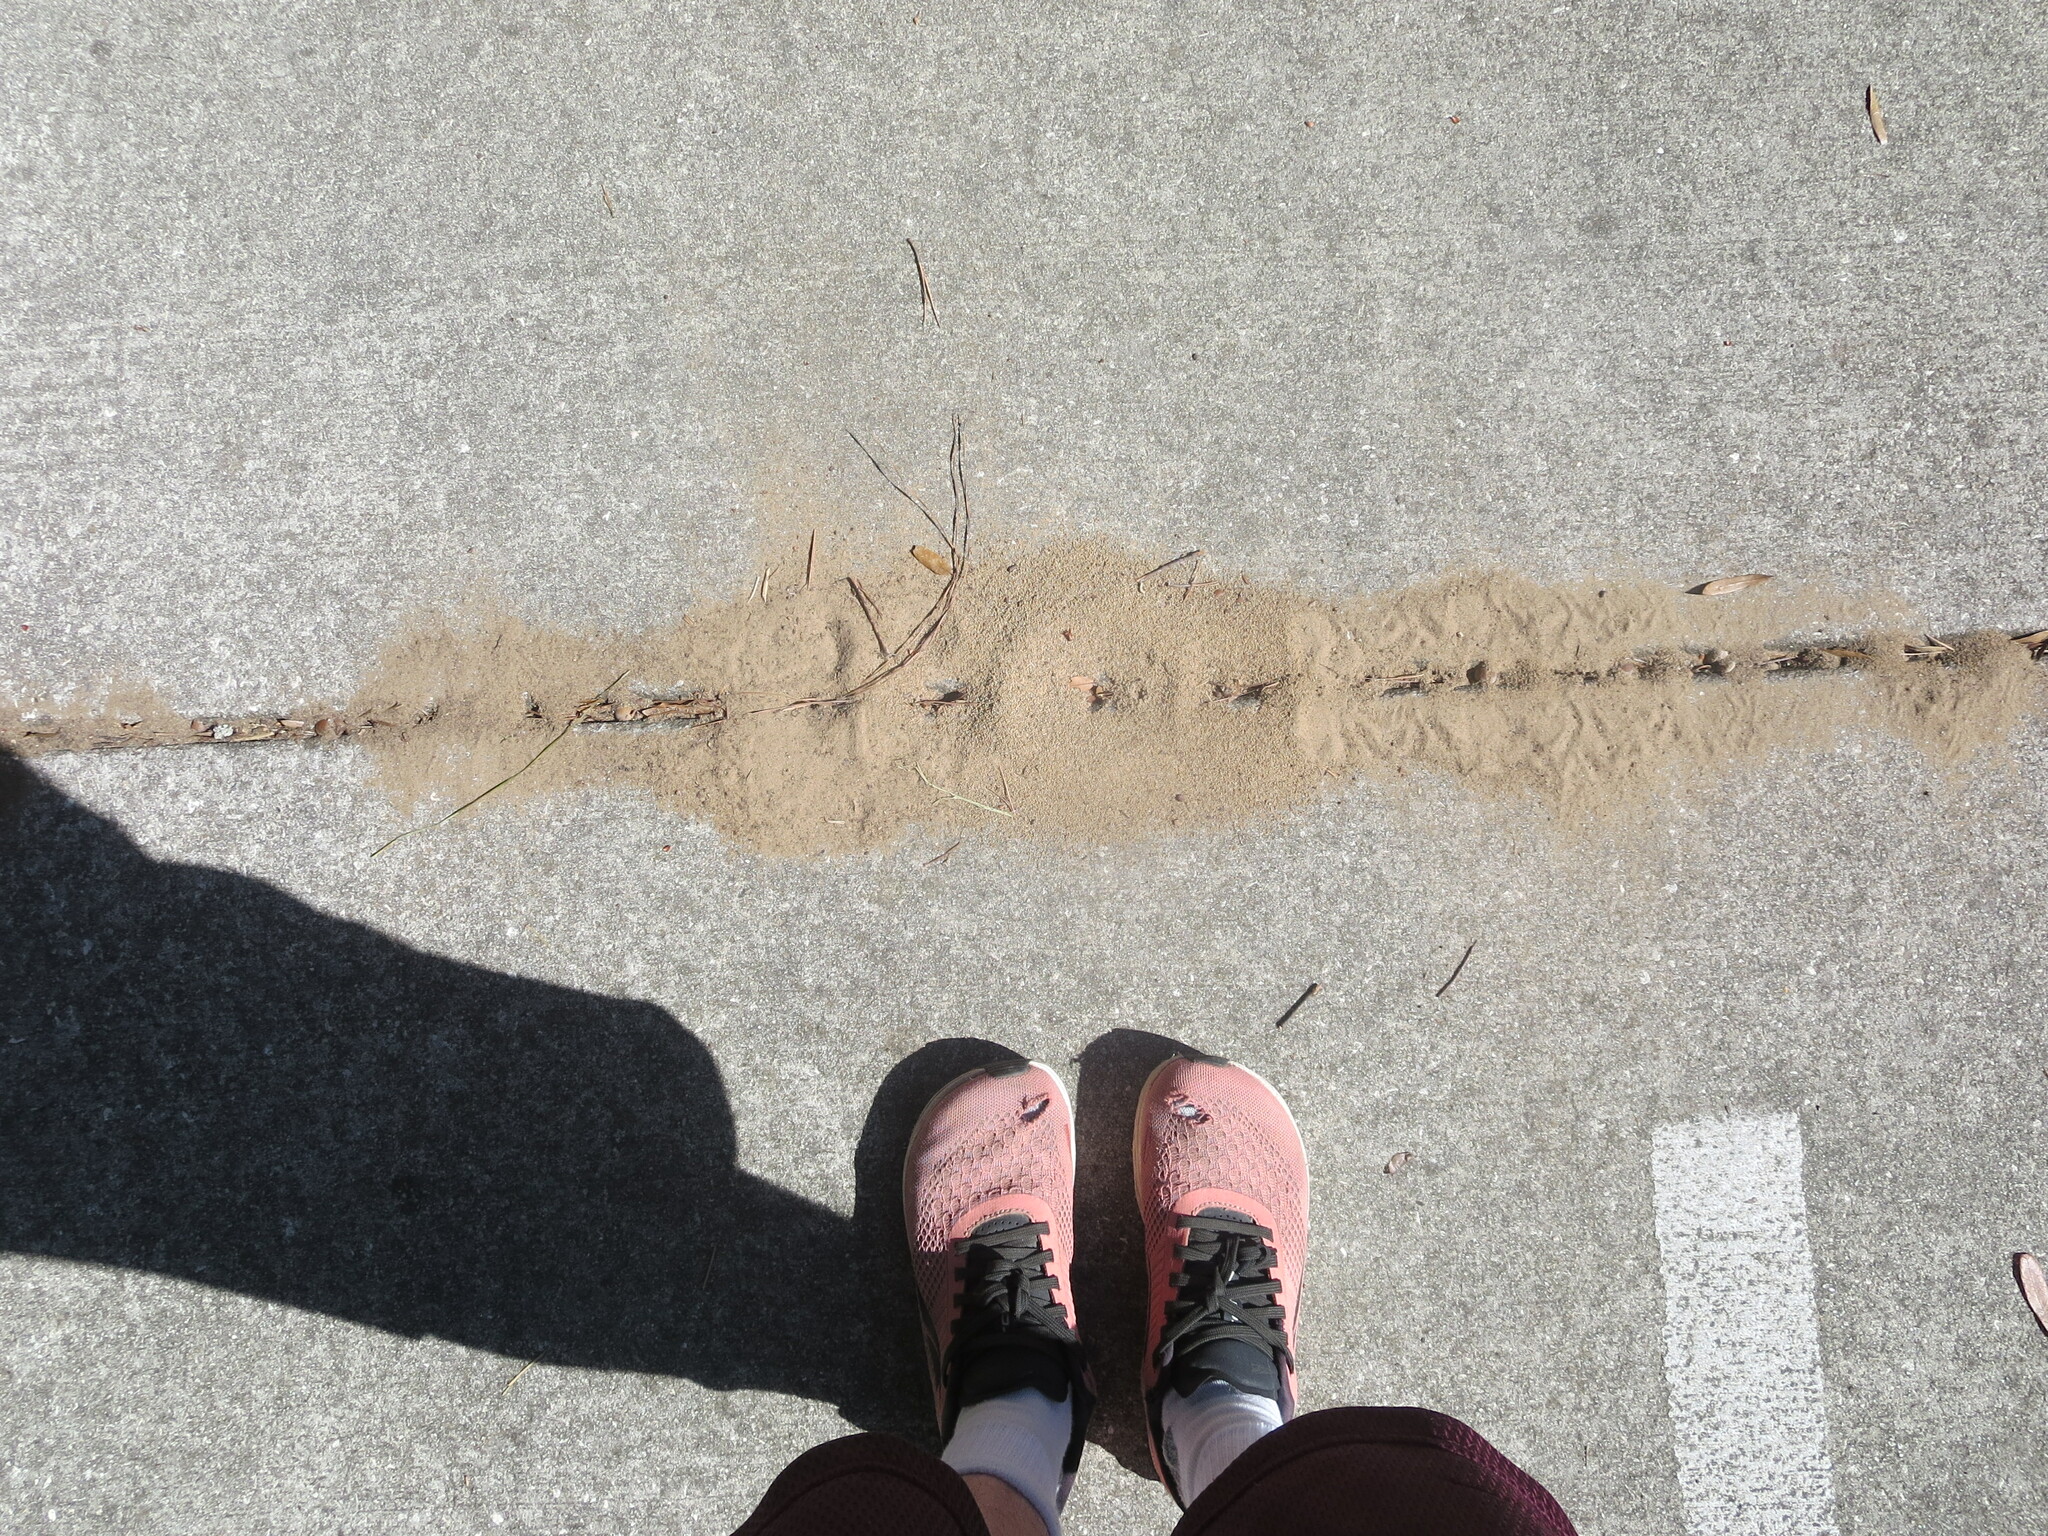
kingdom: Animalia
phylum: Arthropoda
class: Insecta
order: Hymenoptera
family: Formicidae
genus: Solenopsis
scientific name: Solenopsis invicta
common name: Red imported fire ant
